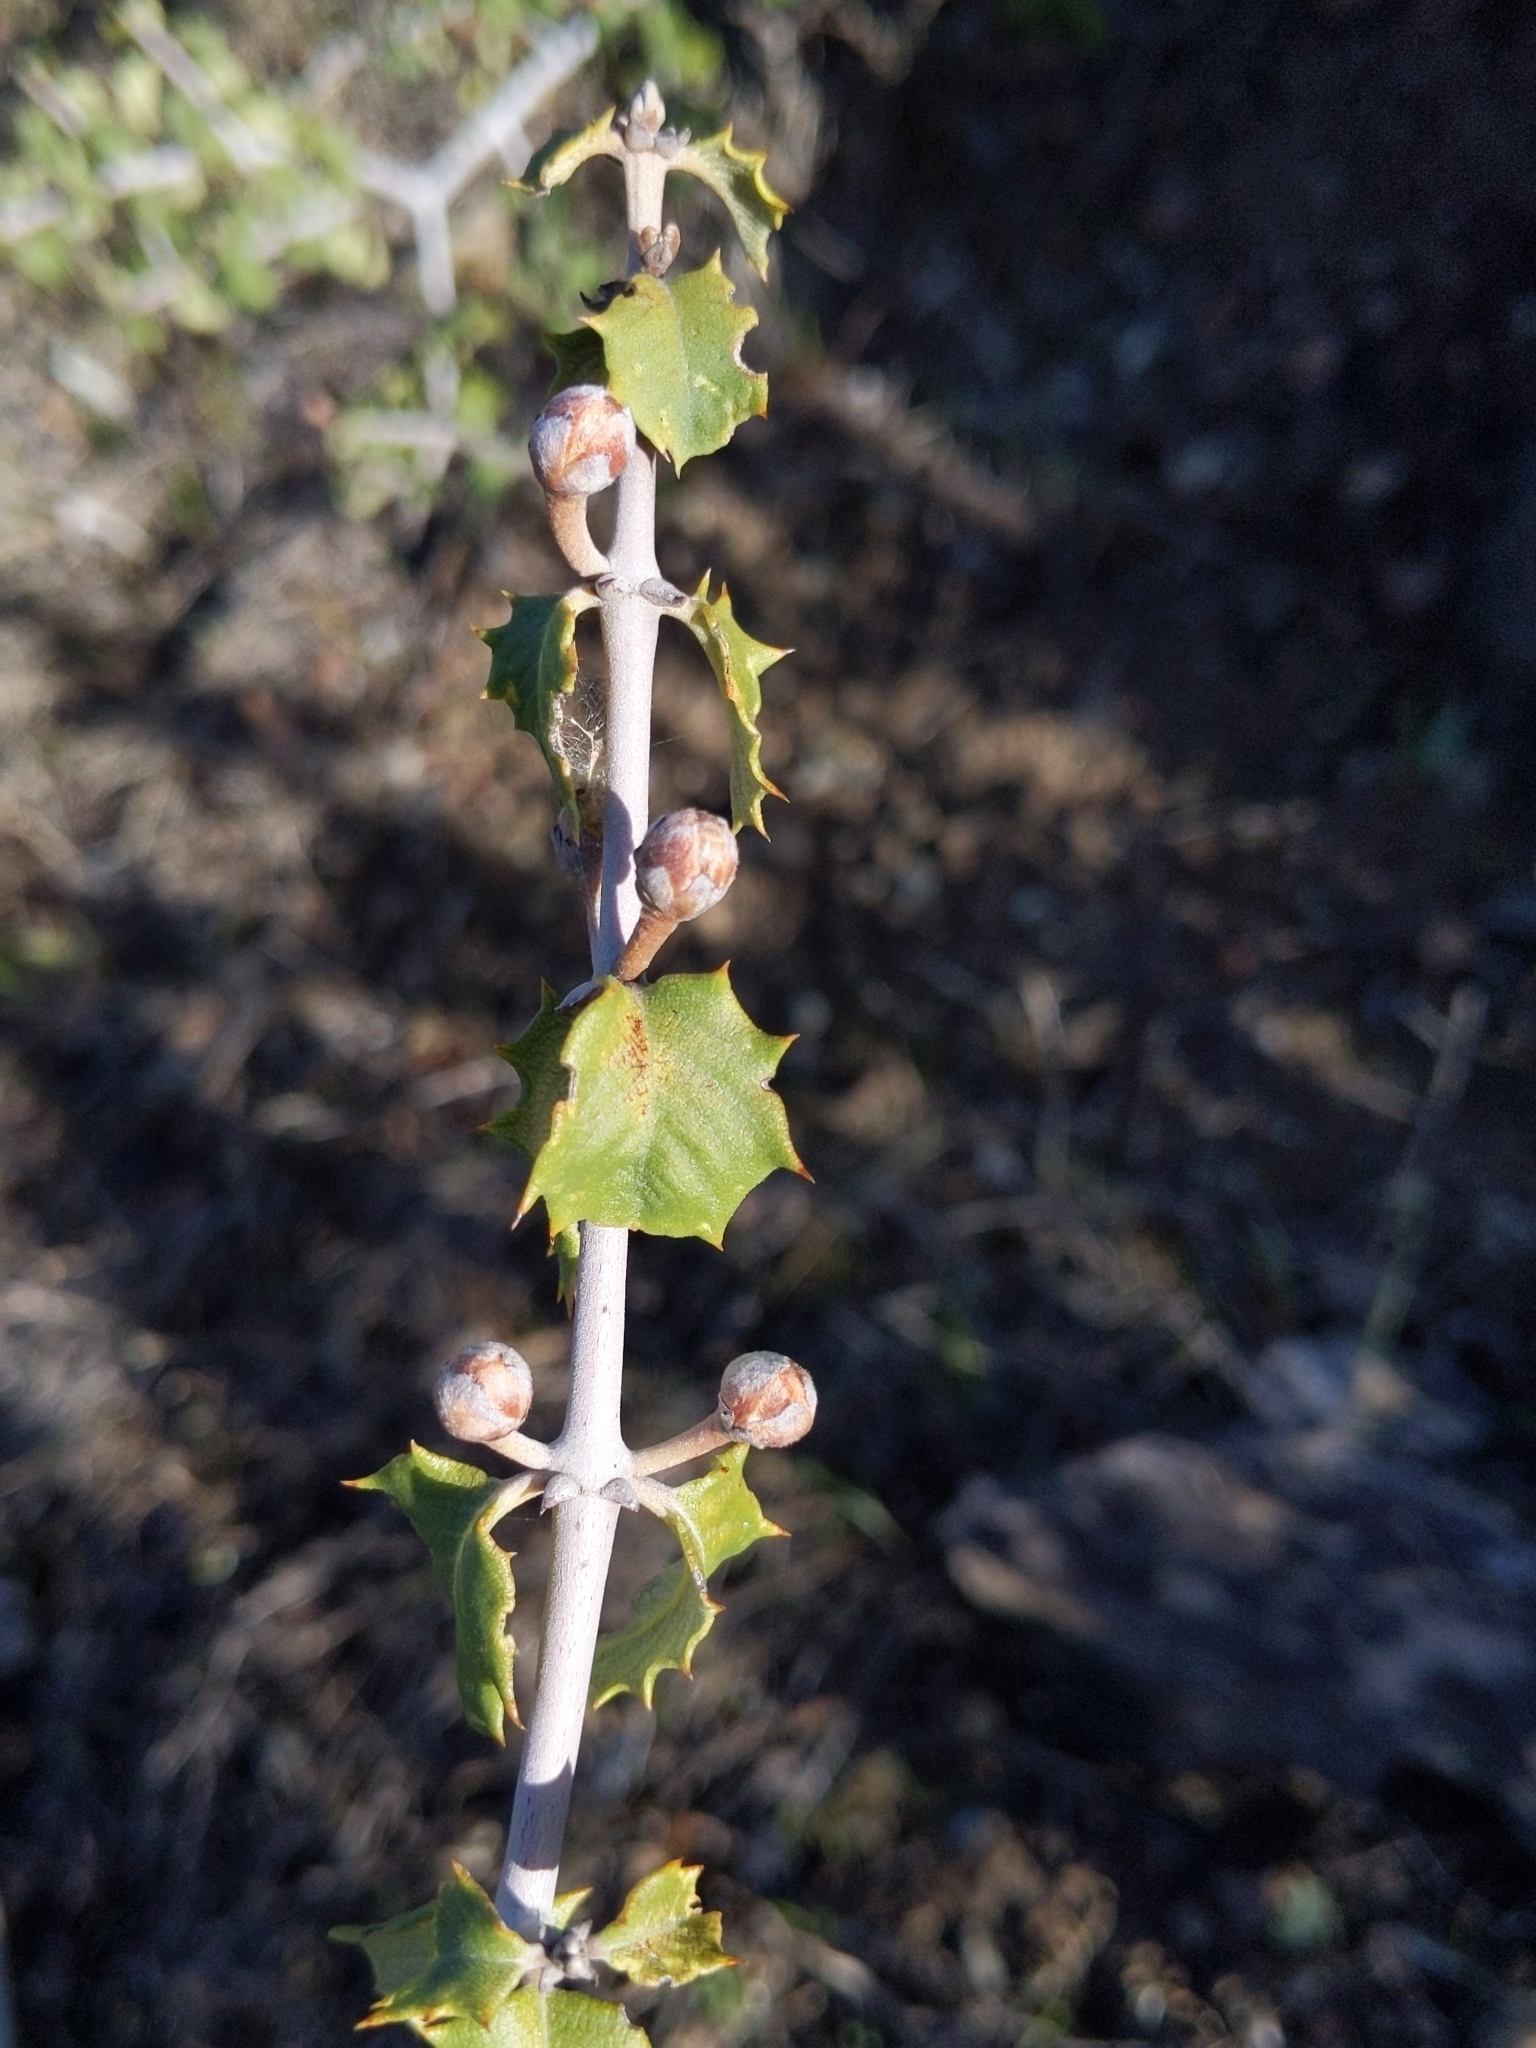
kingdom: Plantae
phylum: Tracheophyta
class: Magnoliopsida
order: Rosales
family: Rhamnaceae
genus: Ceanothus
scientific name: Ceanothus jepsonii
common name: Muskbrush
